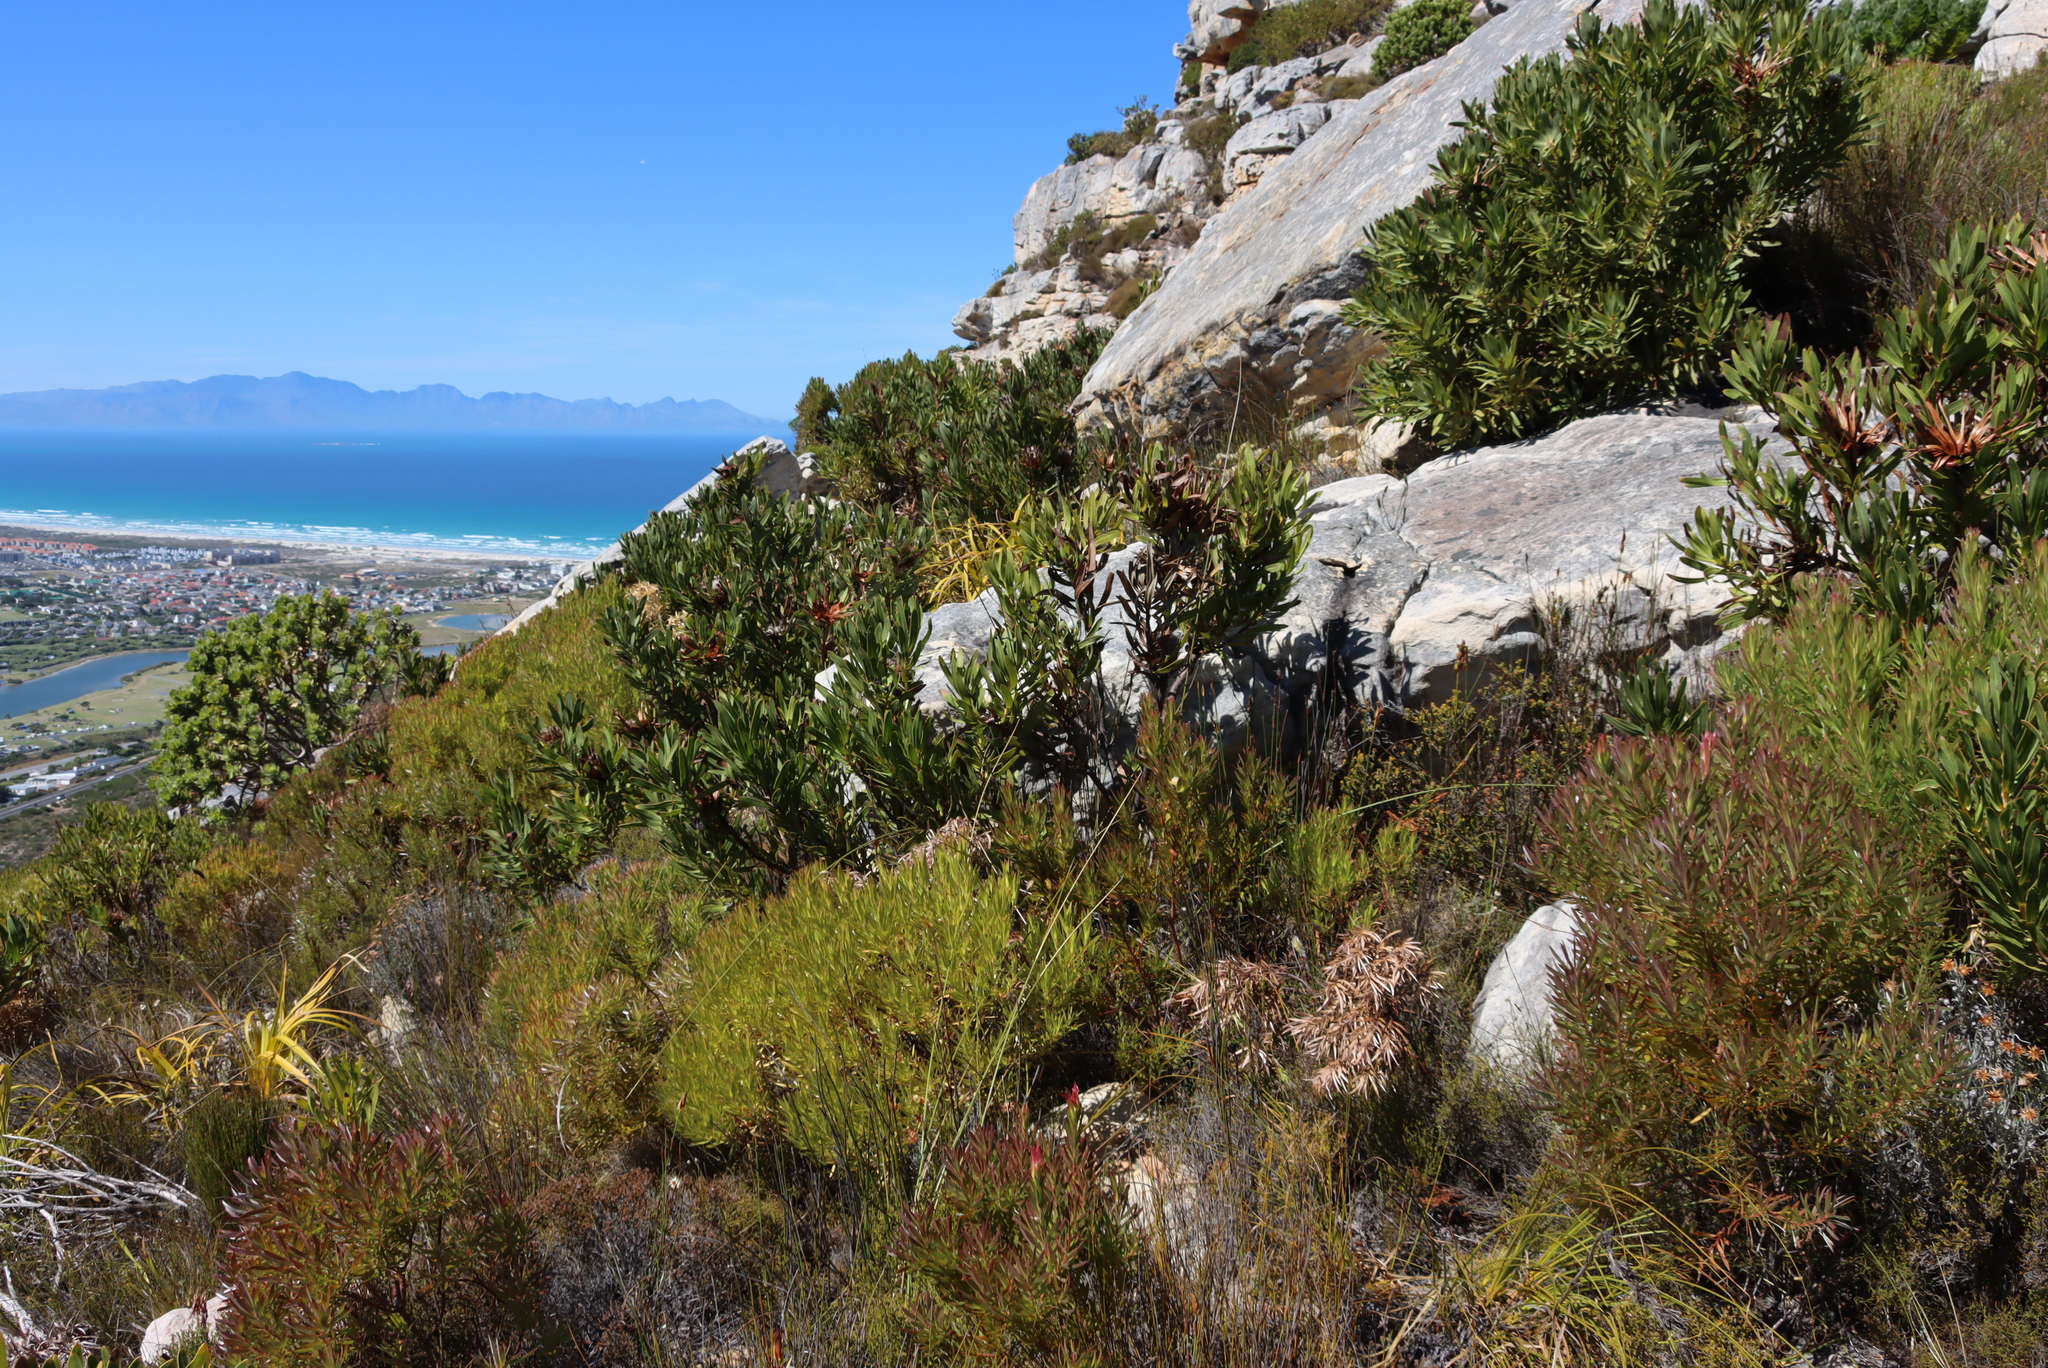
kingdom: Plantae
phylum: Tracheophyta
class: Magnoliopsida
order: Proteales
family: Proteaceae
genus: Leucadendron
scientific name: Leucadendron xanthoconus
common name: Sickle-leaf conebush
